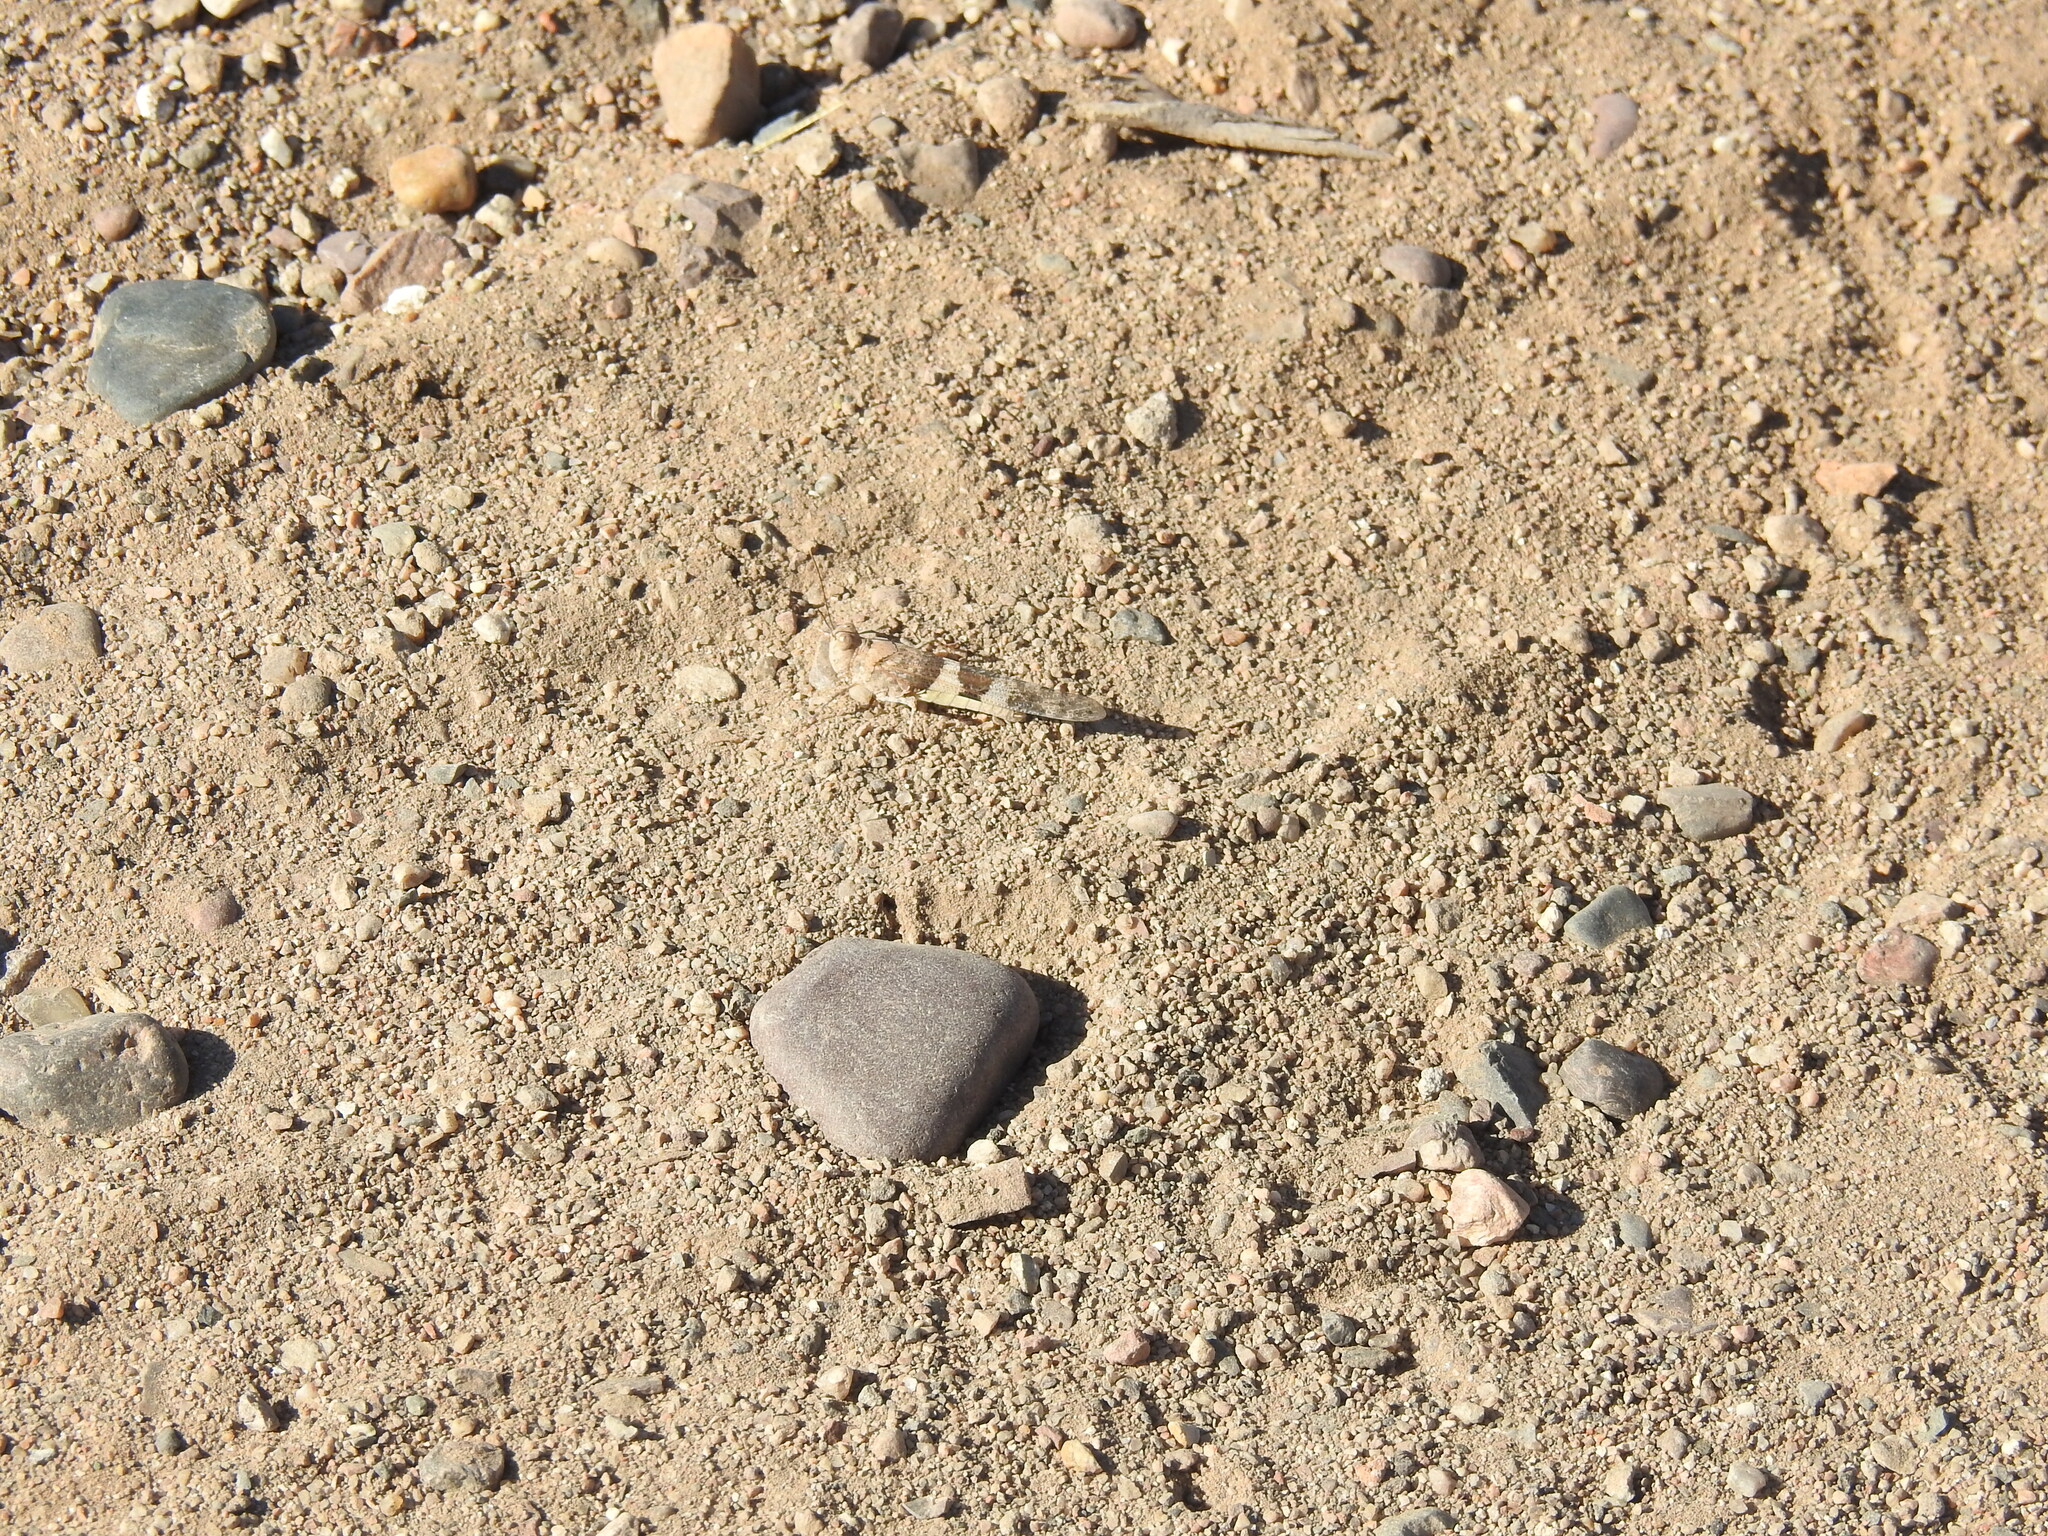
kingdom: Animalia
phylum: Arthropoda
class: Insecta
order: Orthoptera
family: Acrididae
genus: Trimerotropis
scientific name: Trimerotropis pallidipennis
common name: Pallid-winged grasshopper
